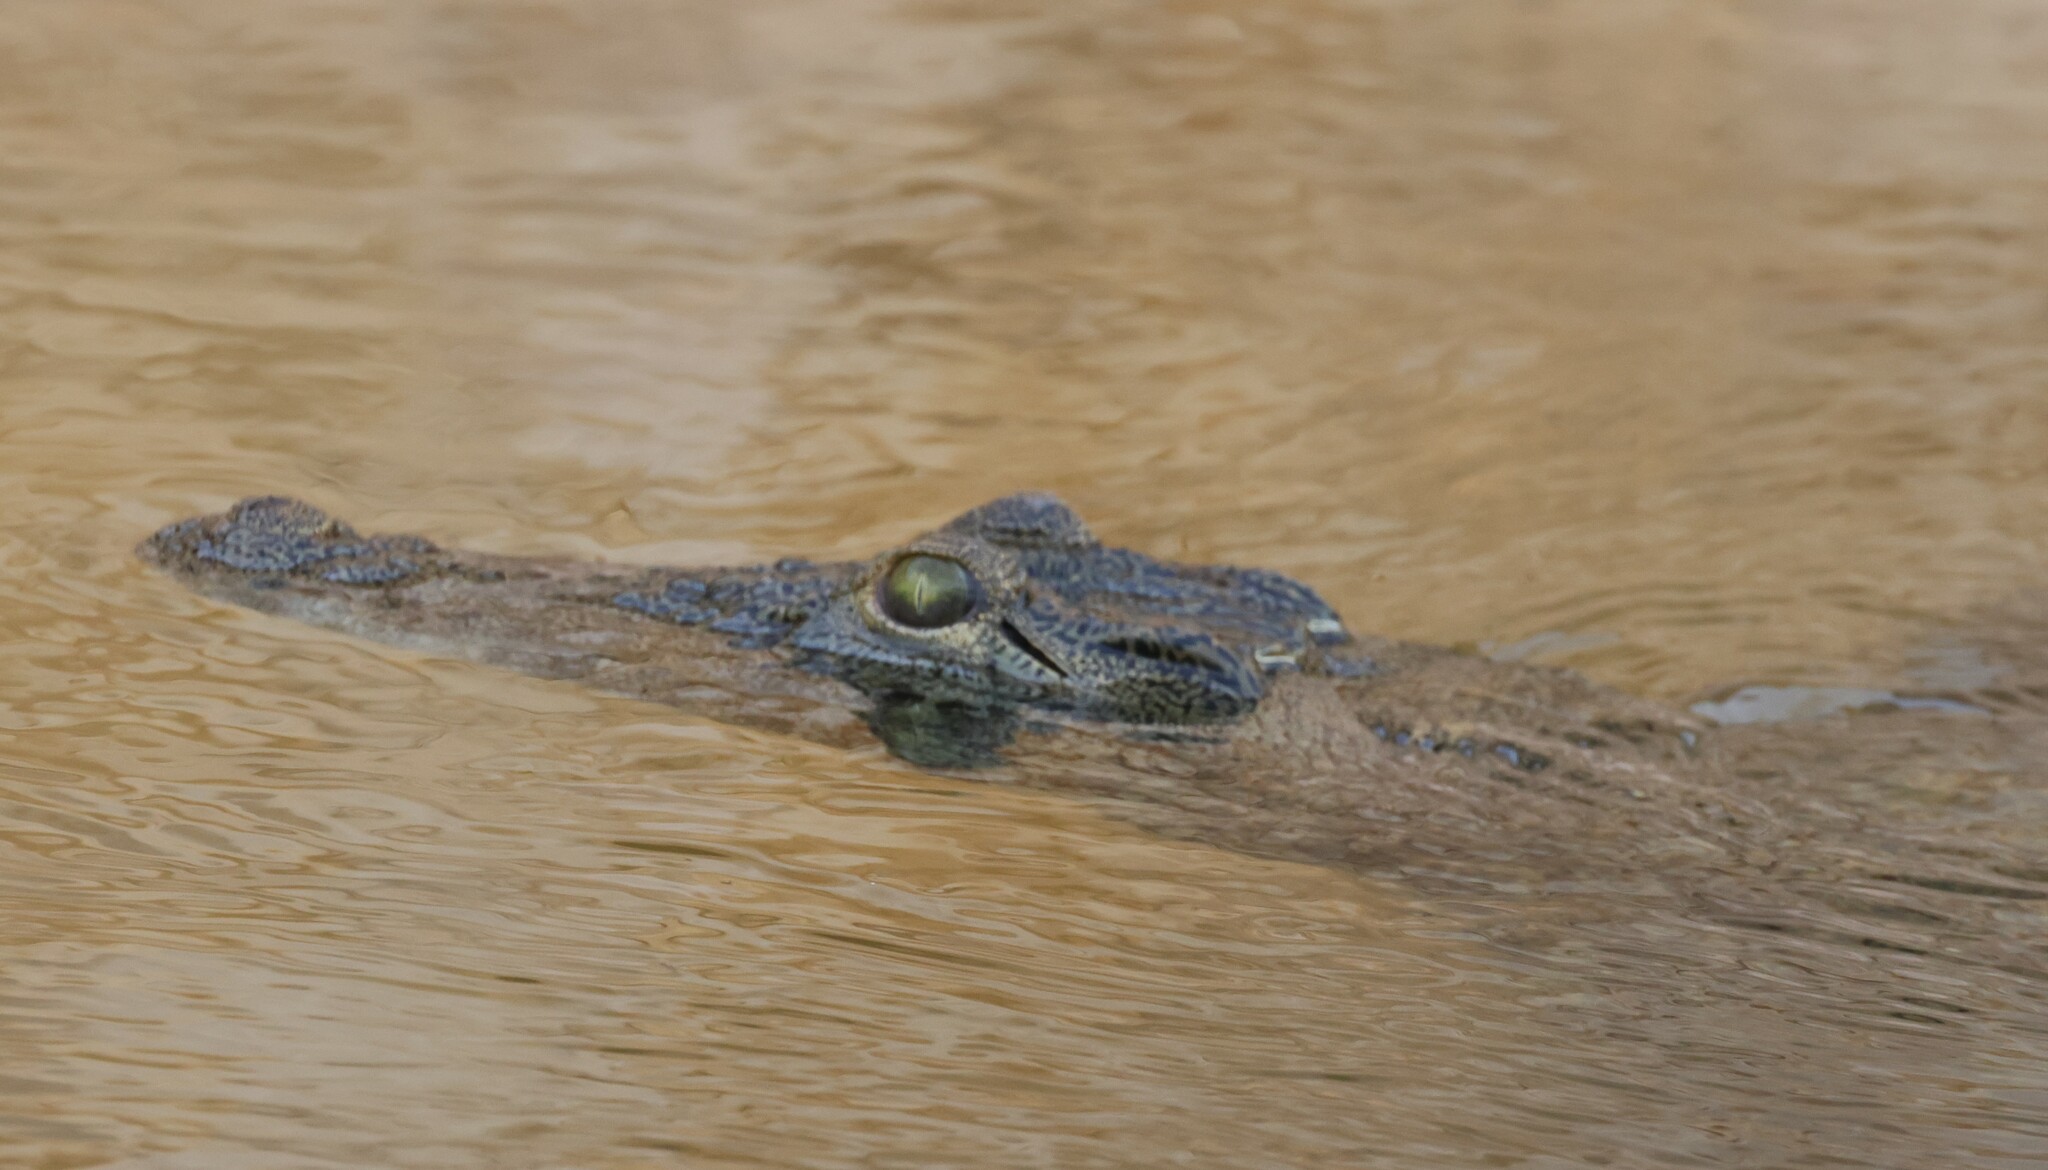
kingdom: Animalia
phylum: Chordata
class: Crocodylia
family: Crocodylidae
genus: Crocodylus
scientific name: Crocodylus niloticus
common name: Nile crocodile
